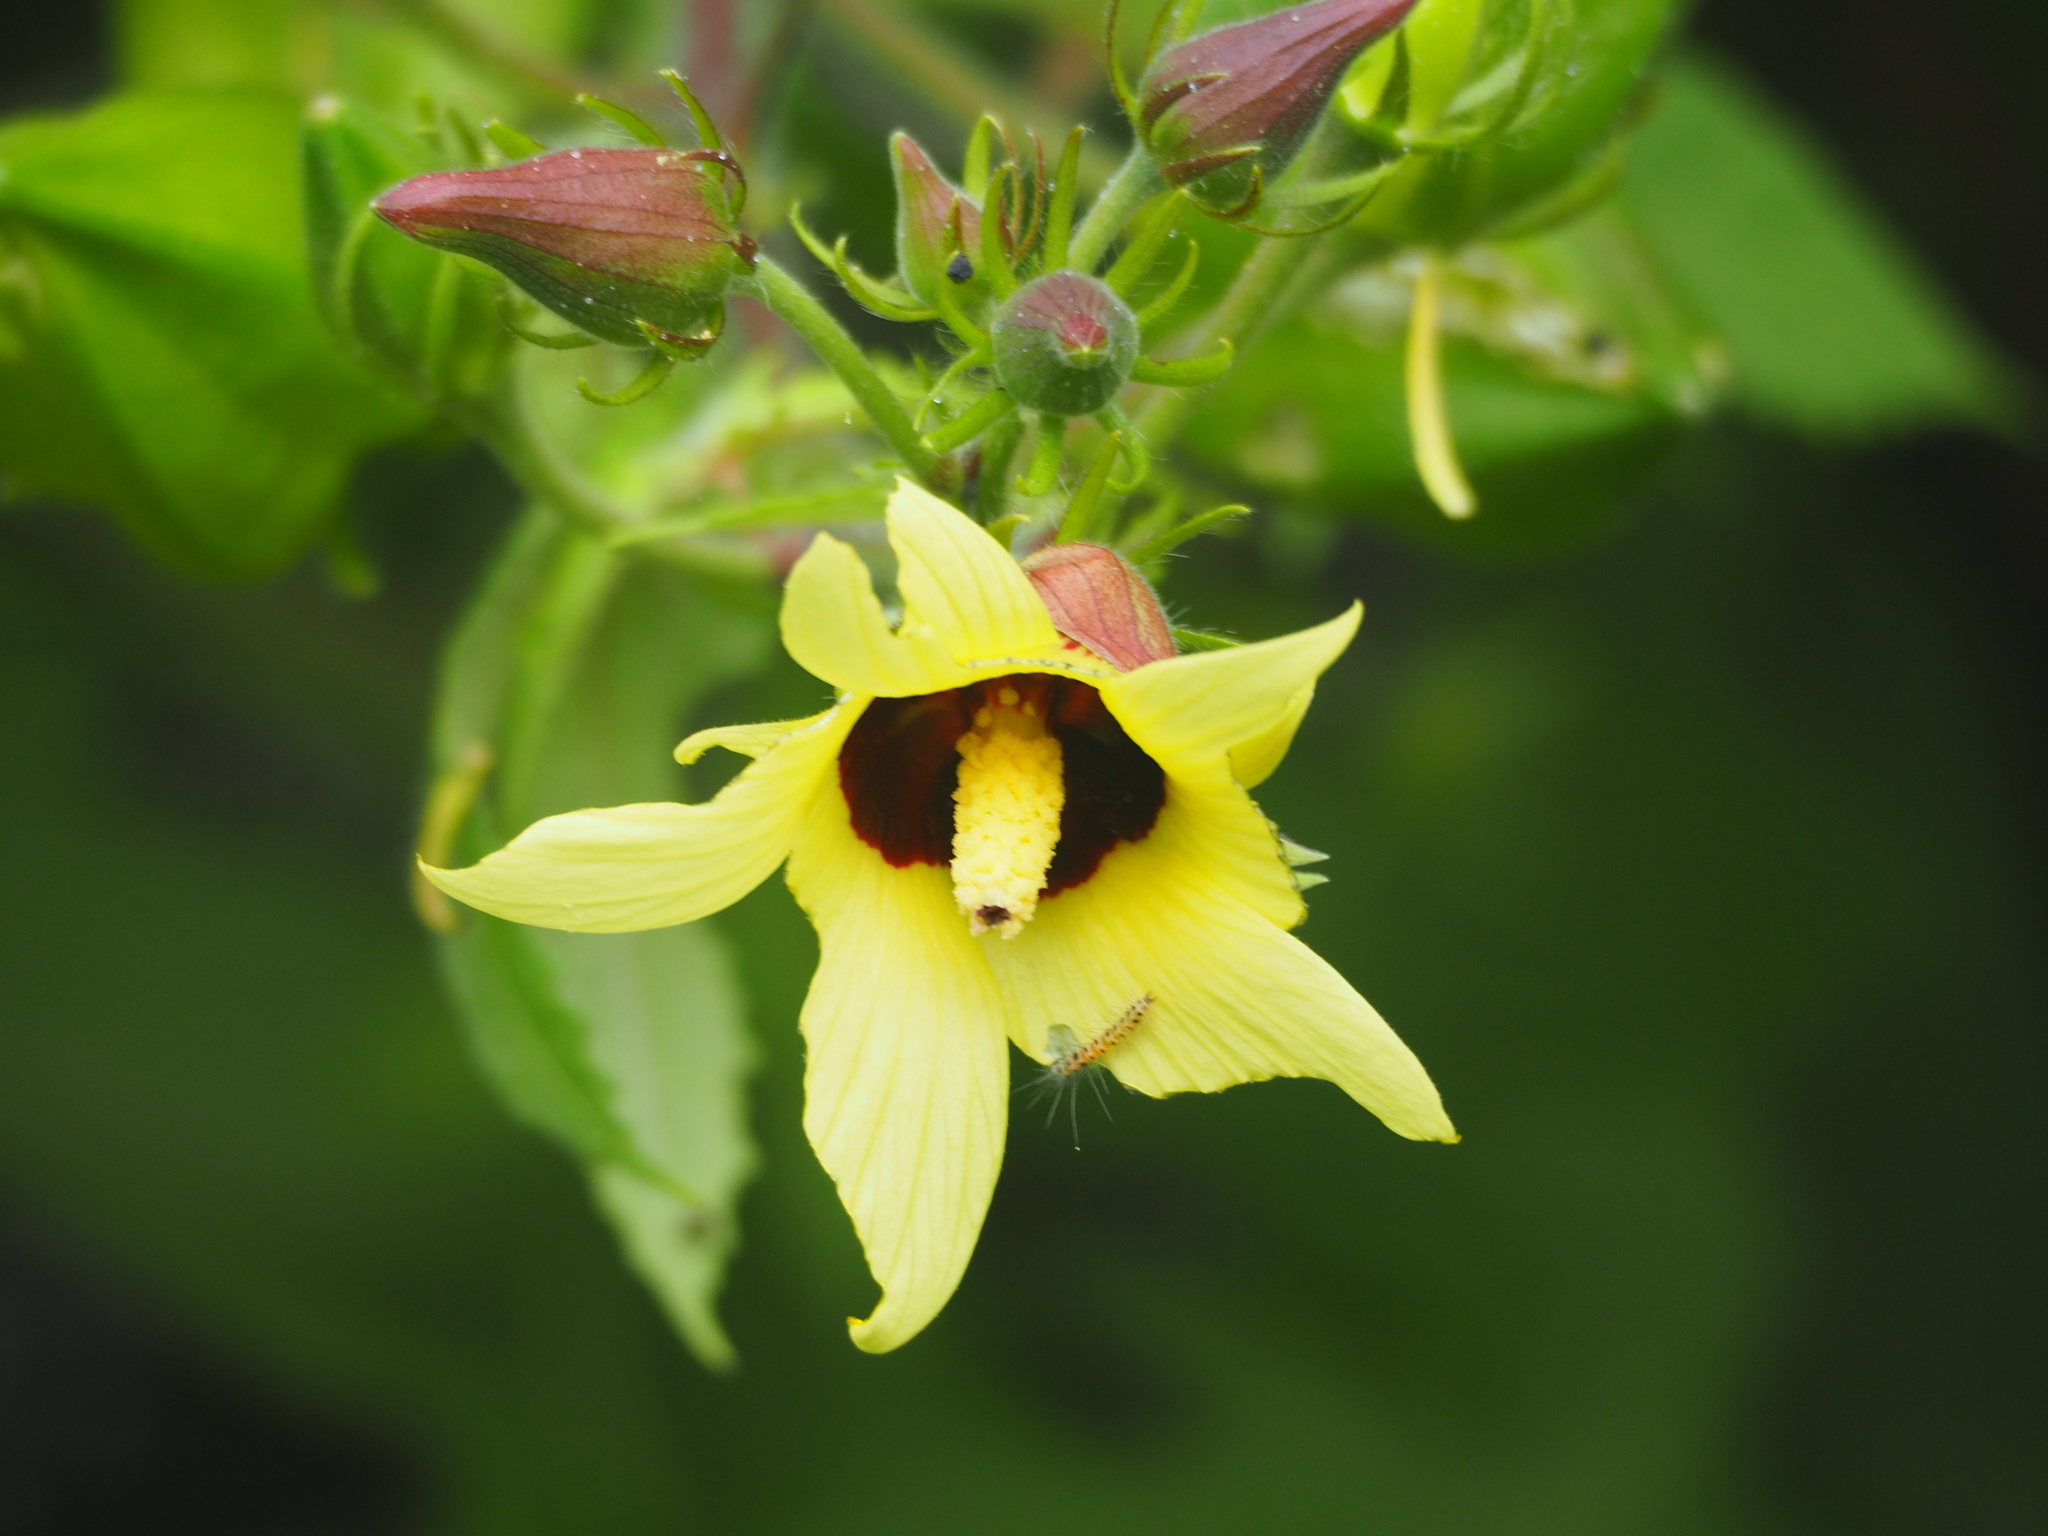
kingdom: Plantae
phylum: Tracheophyta
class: Magnoliopsida
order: Malvales
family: Malvaceae
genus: Abelmoschus
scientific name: Abelmoschus moschatus
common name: Musk okra
